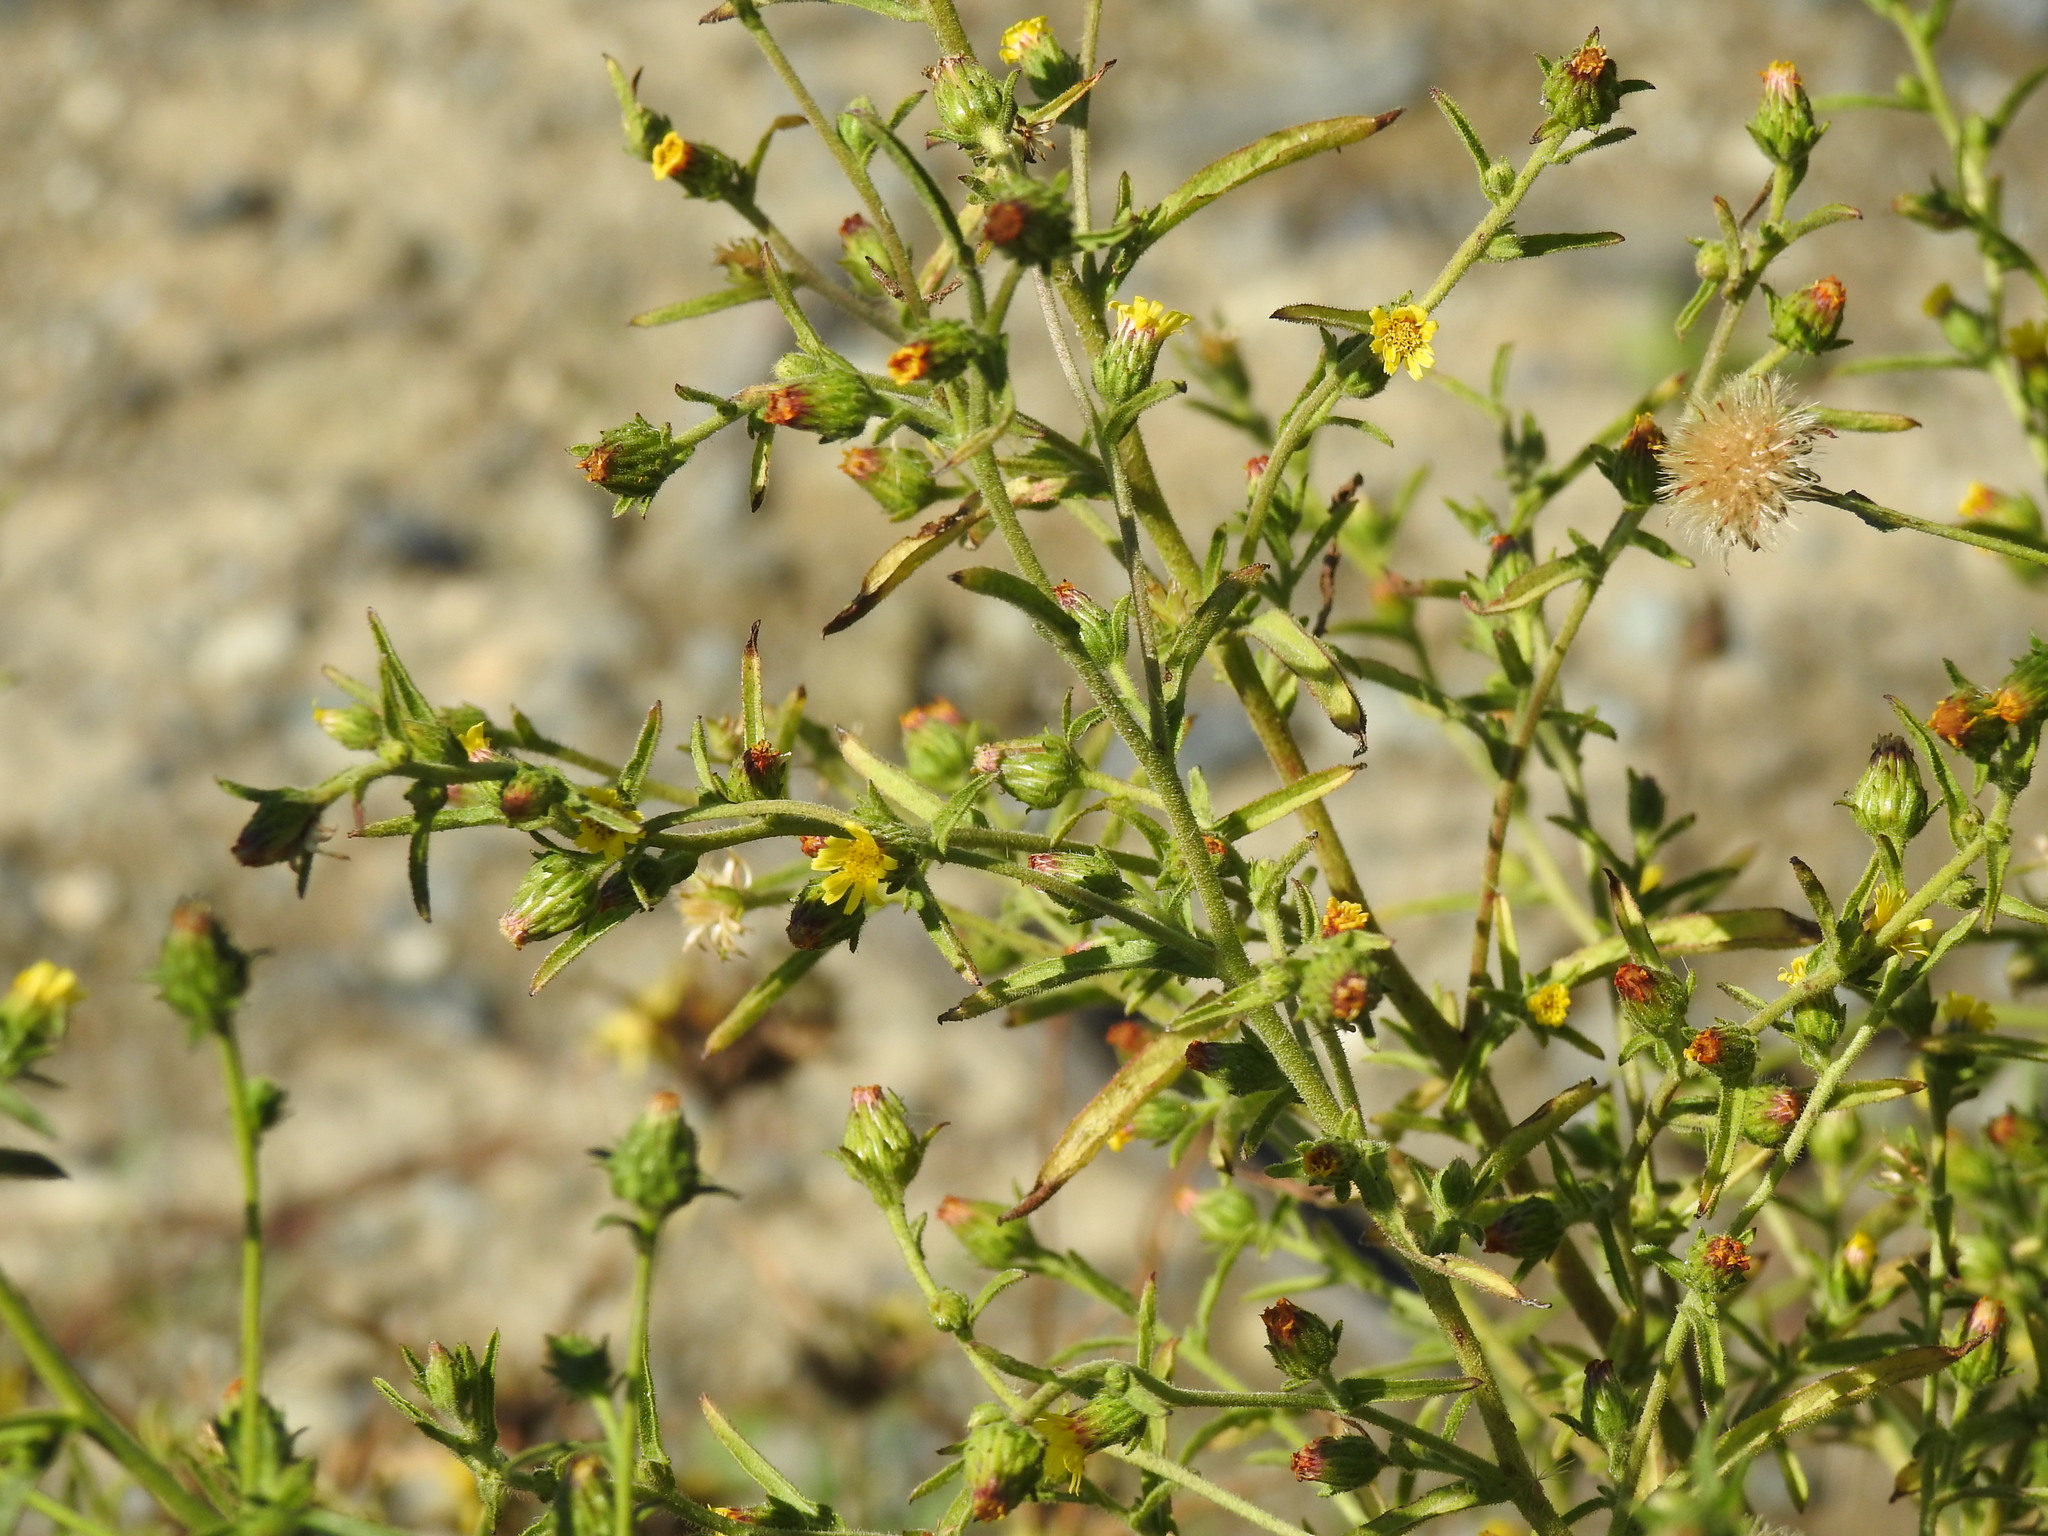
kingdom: Plantae
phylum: Tracheophyta
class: Magnoliopsida
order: Asterales
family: Asteraceae
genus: Dittrichia
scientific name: Dittrichia graveolens
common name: Stinking fleabane
